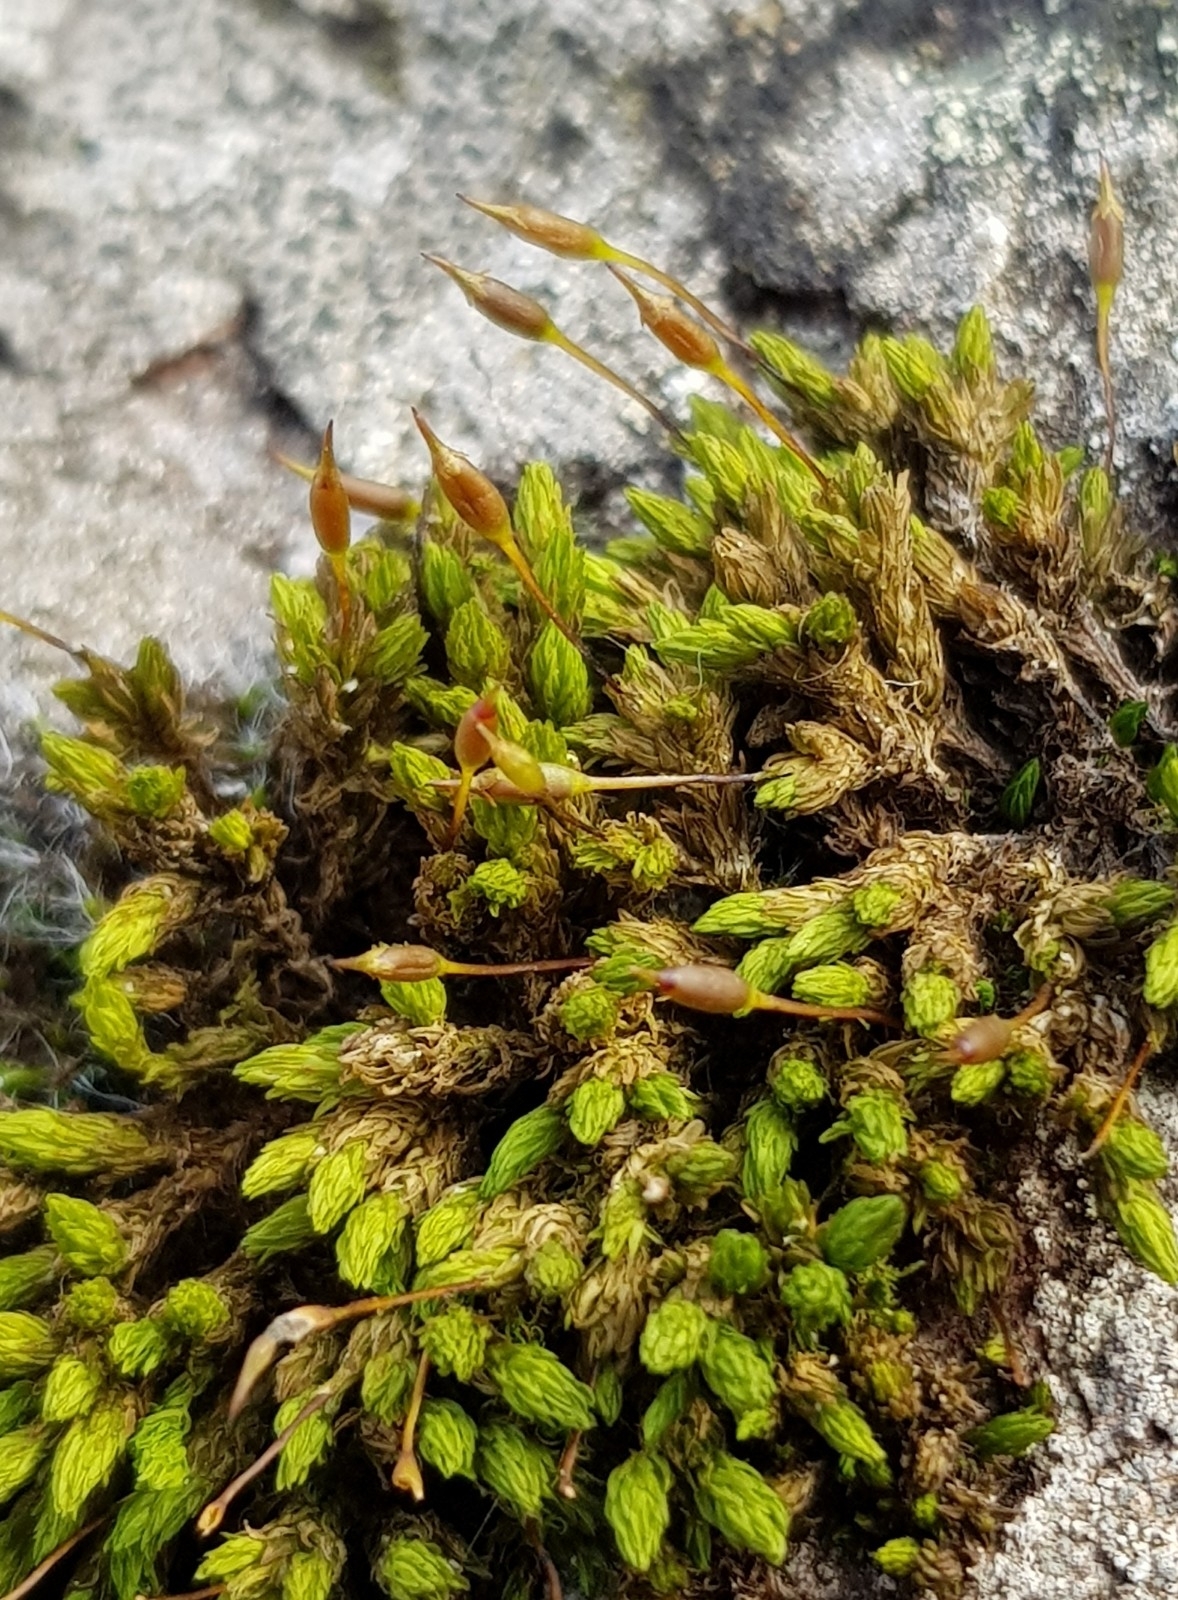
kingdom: Plantae
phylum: Bryophyta
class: Bryopsida
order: Grimmiales
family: Grimmiaceae
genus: Codriophorus
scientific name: Codriophorus acicularis
